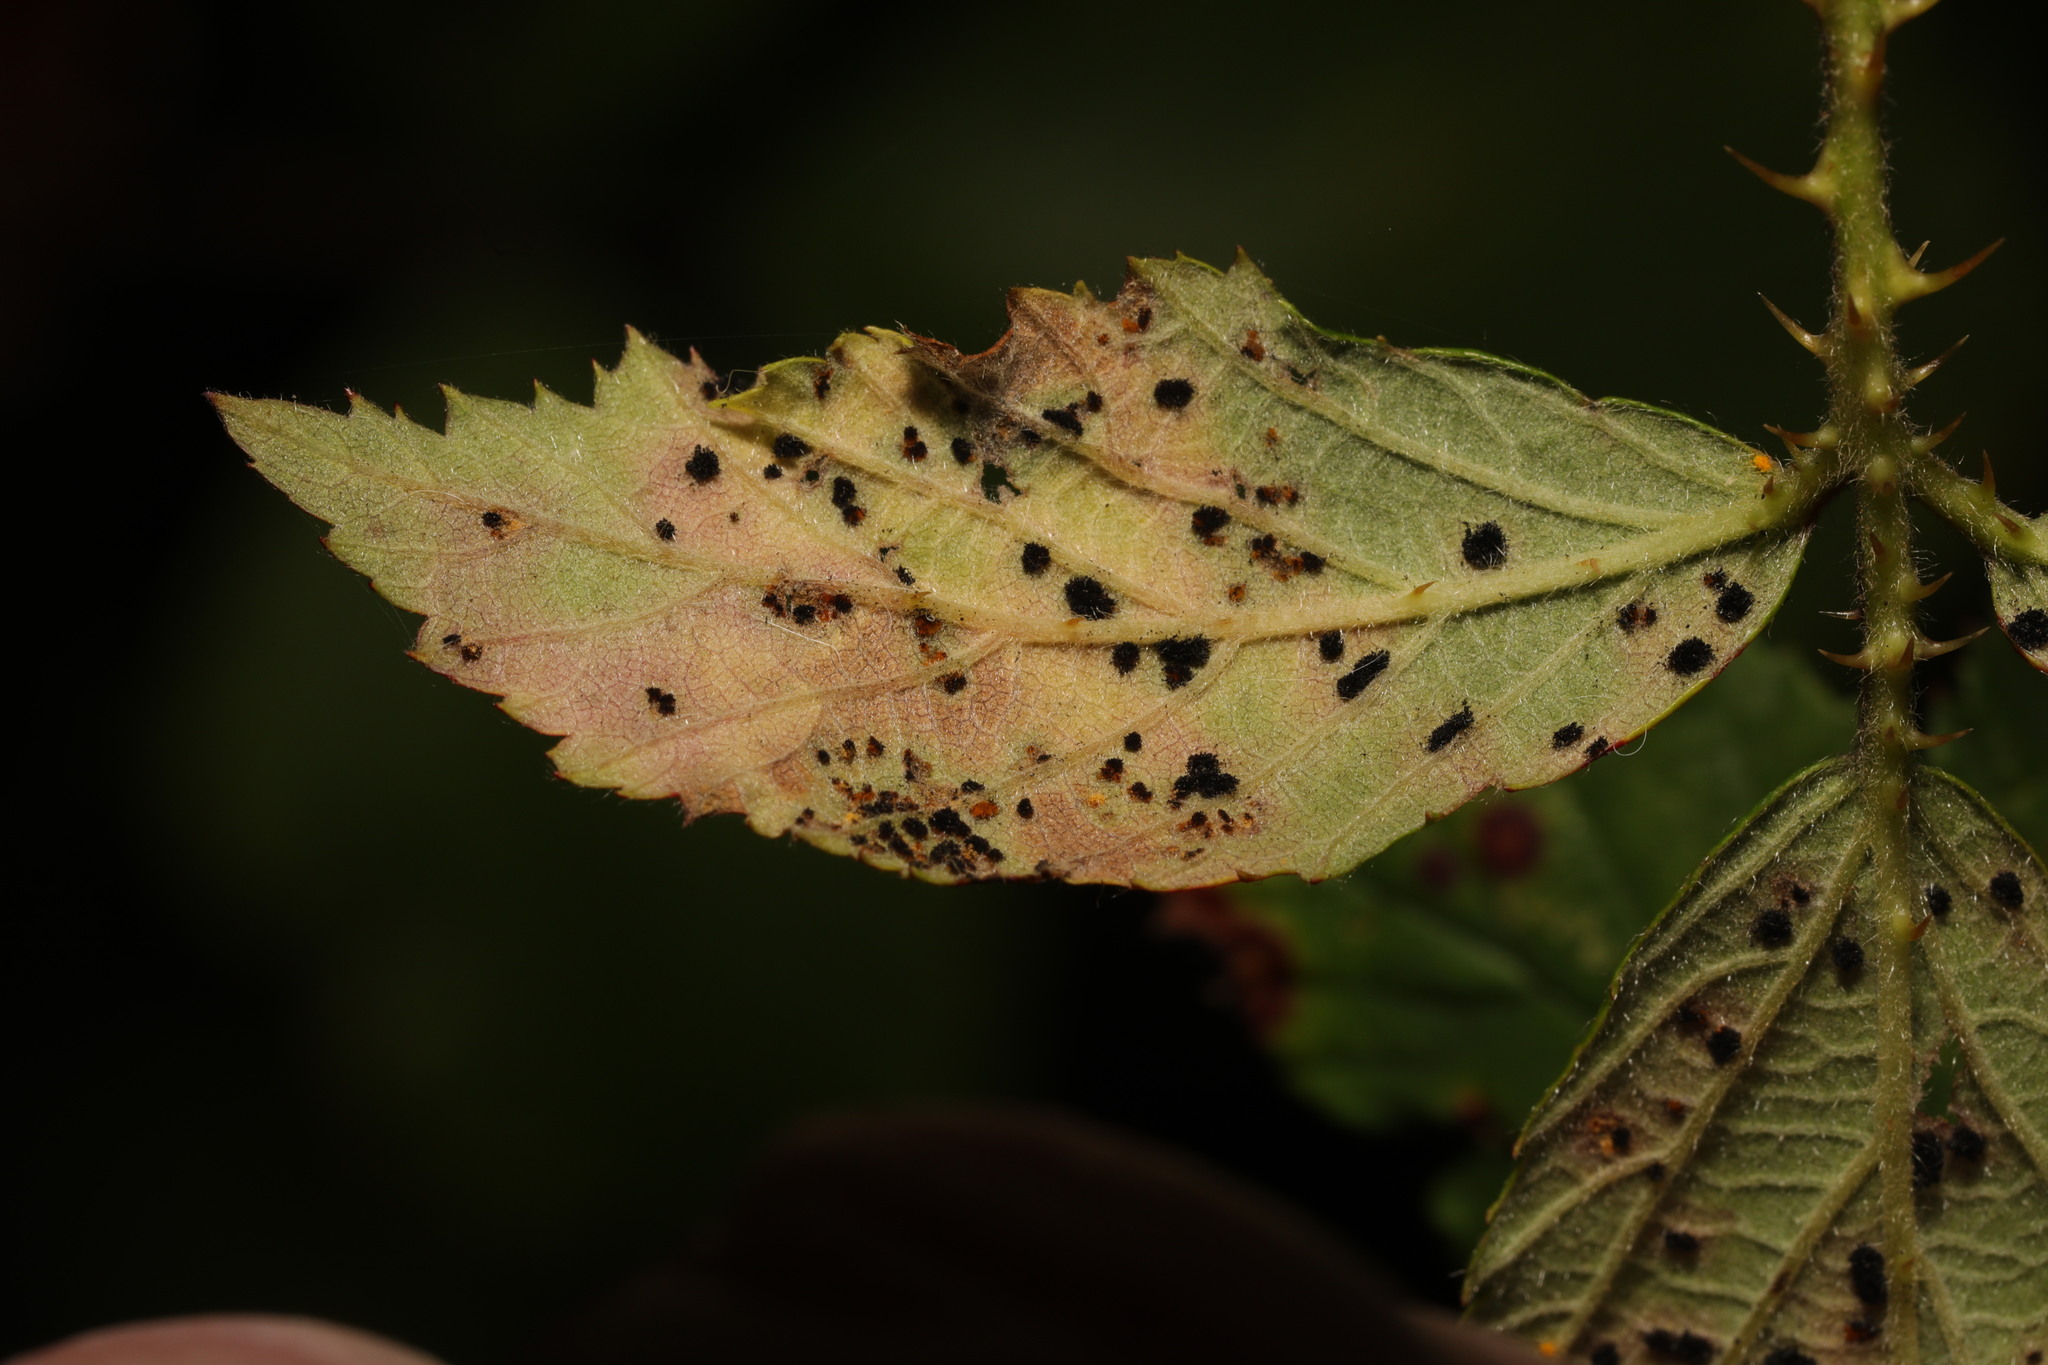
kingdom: Fungi
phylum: Basidiomycota
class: Pucciniomycetes
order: Pucciniales
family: Phragmidiaceae
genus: Phragmidium
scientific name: Phragmidium violaceum
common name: Violet bramble rust
